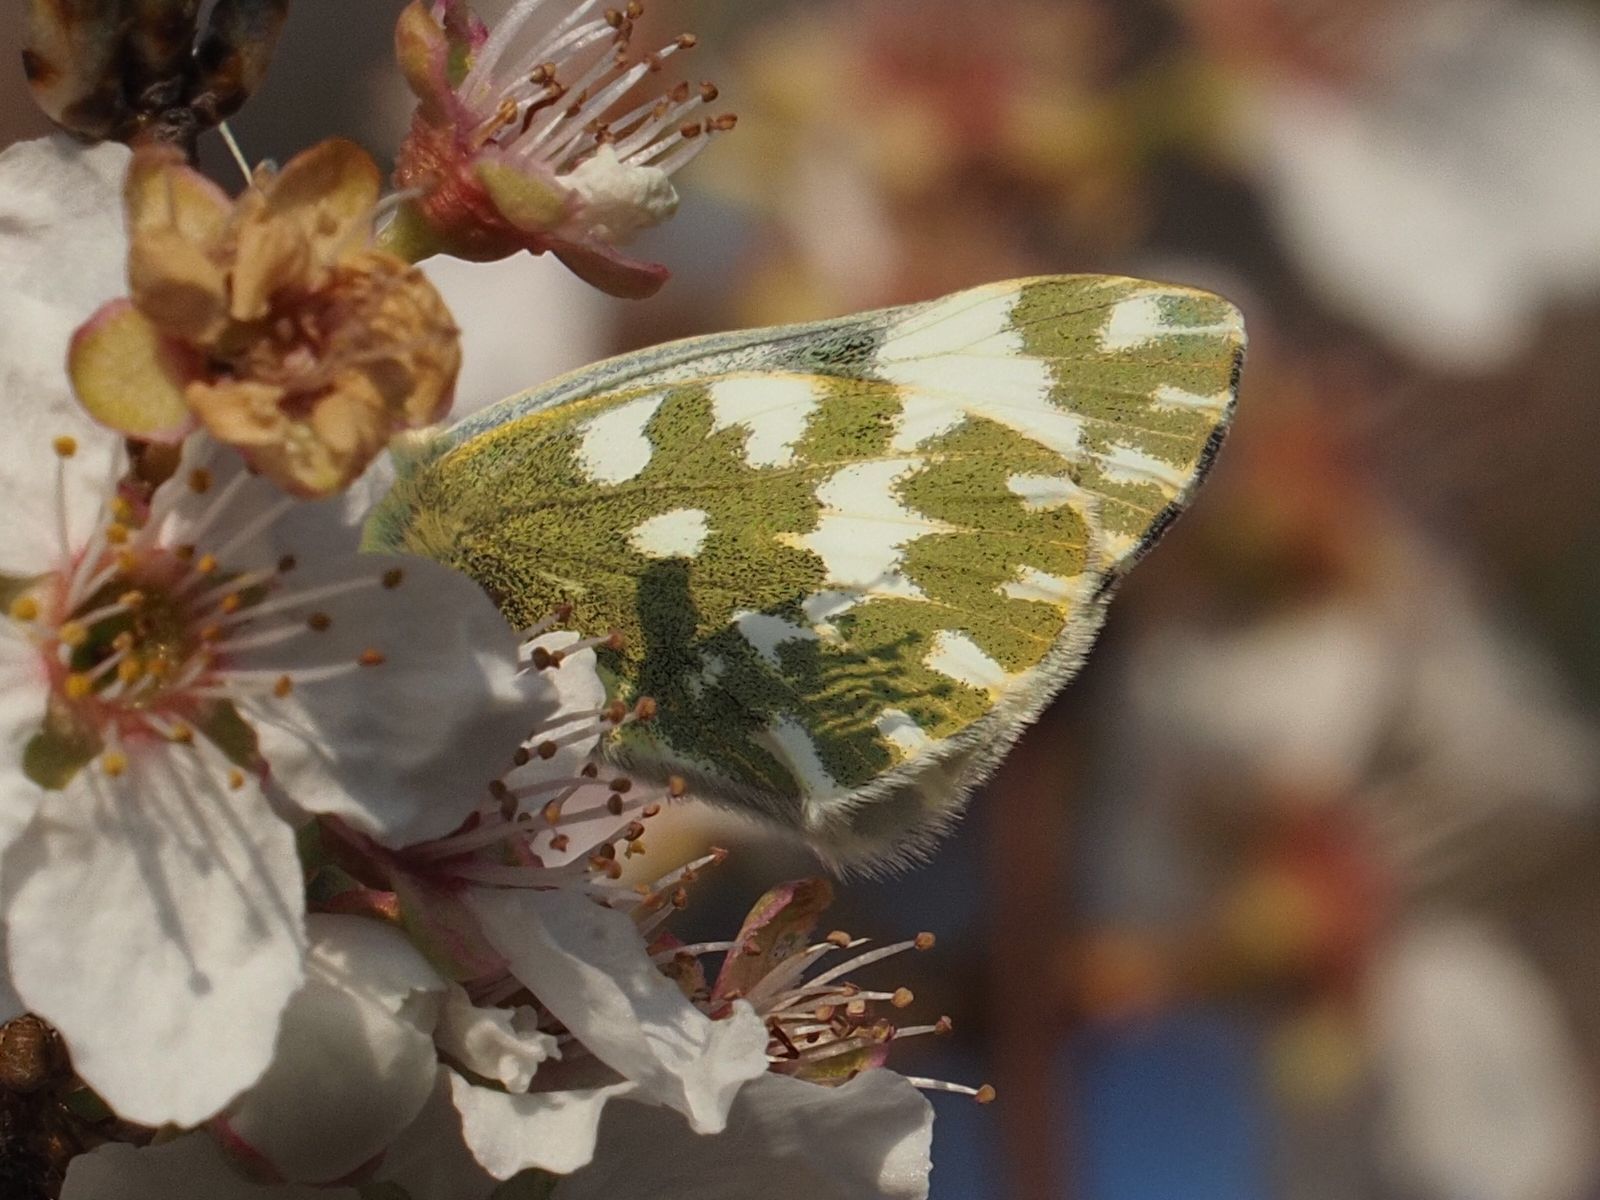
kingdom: Animalia
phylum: Arthropoda
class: Insecta
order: Lepidoptera
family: Pieridae
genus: Pontia
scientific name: Pontia edusa
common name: Eastern bath white
